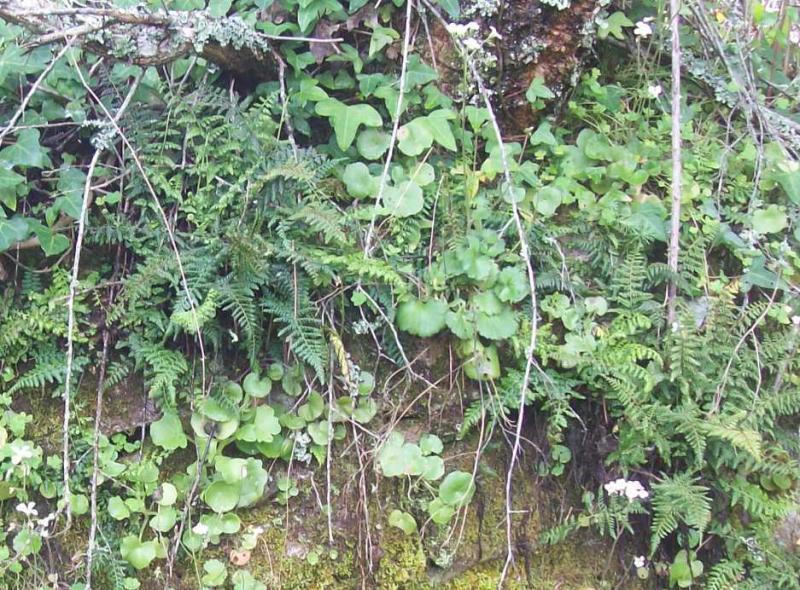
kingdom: Plantae
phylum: Tracheophyta
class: Polypodiopsida
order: Polypodiales
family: Aspleniaceae
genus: Asplenium
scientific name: Asplenium onopteris
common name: Irish spleenwort
